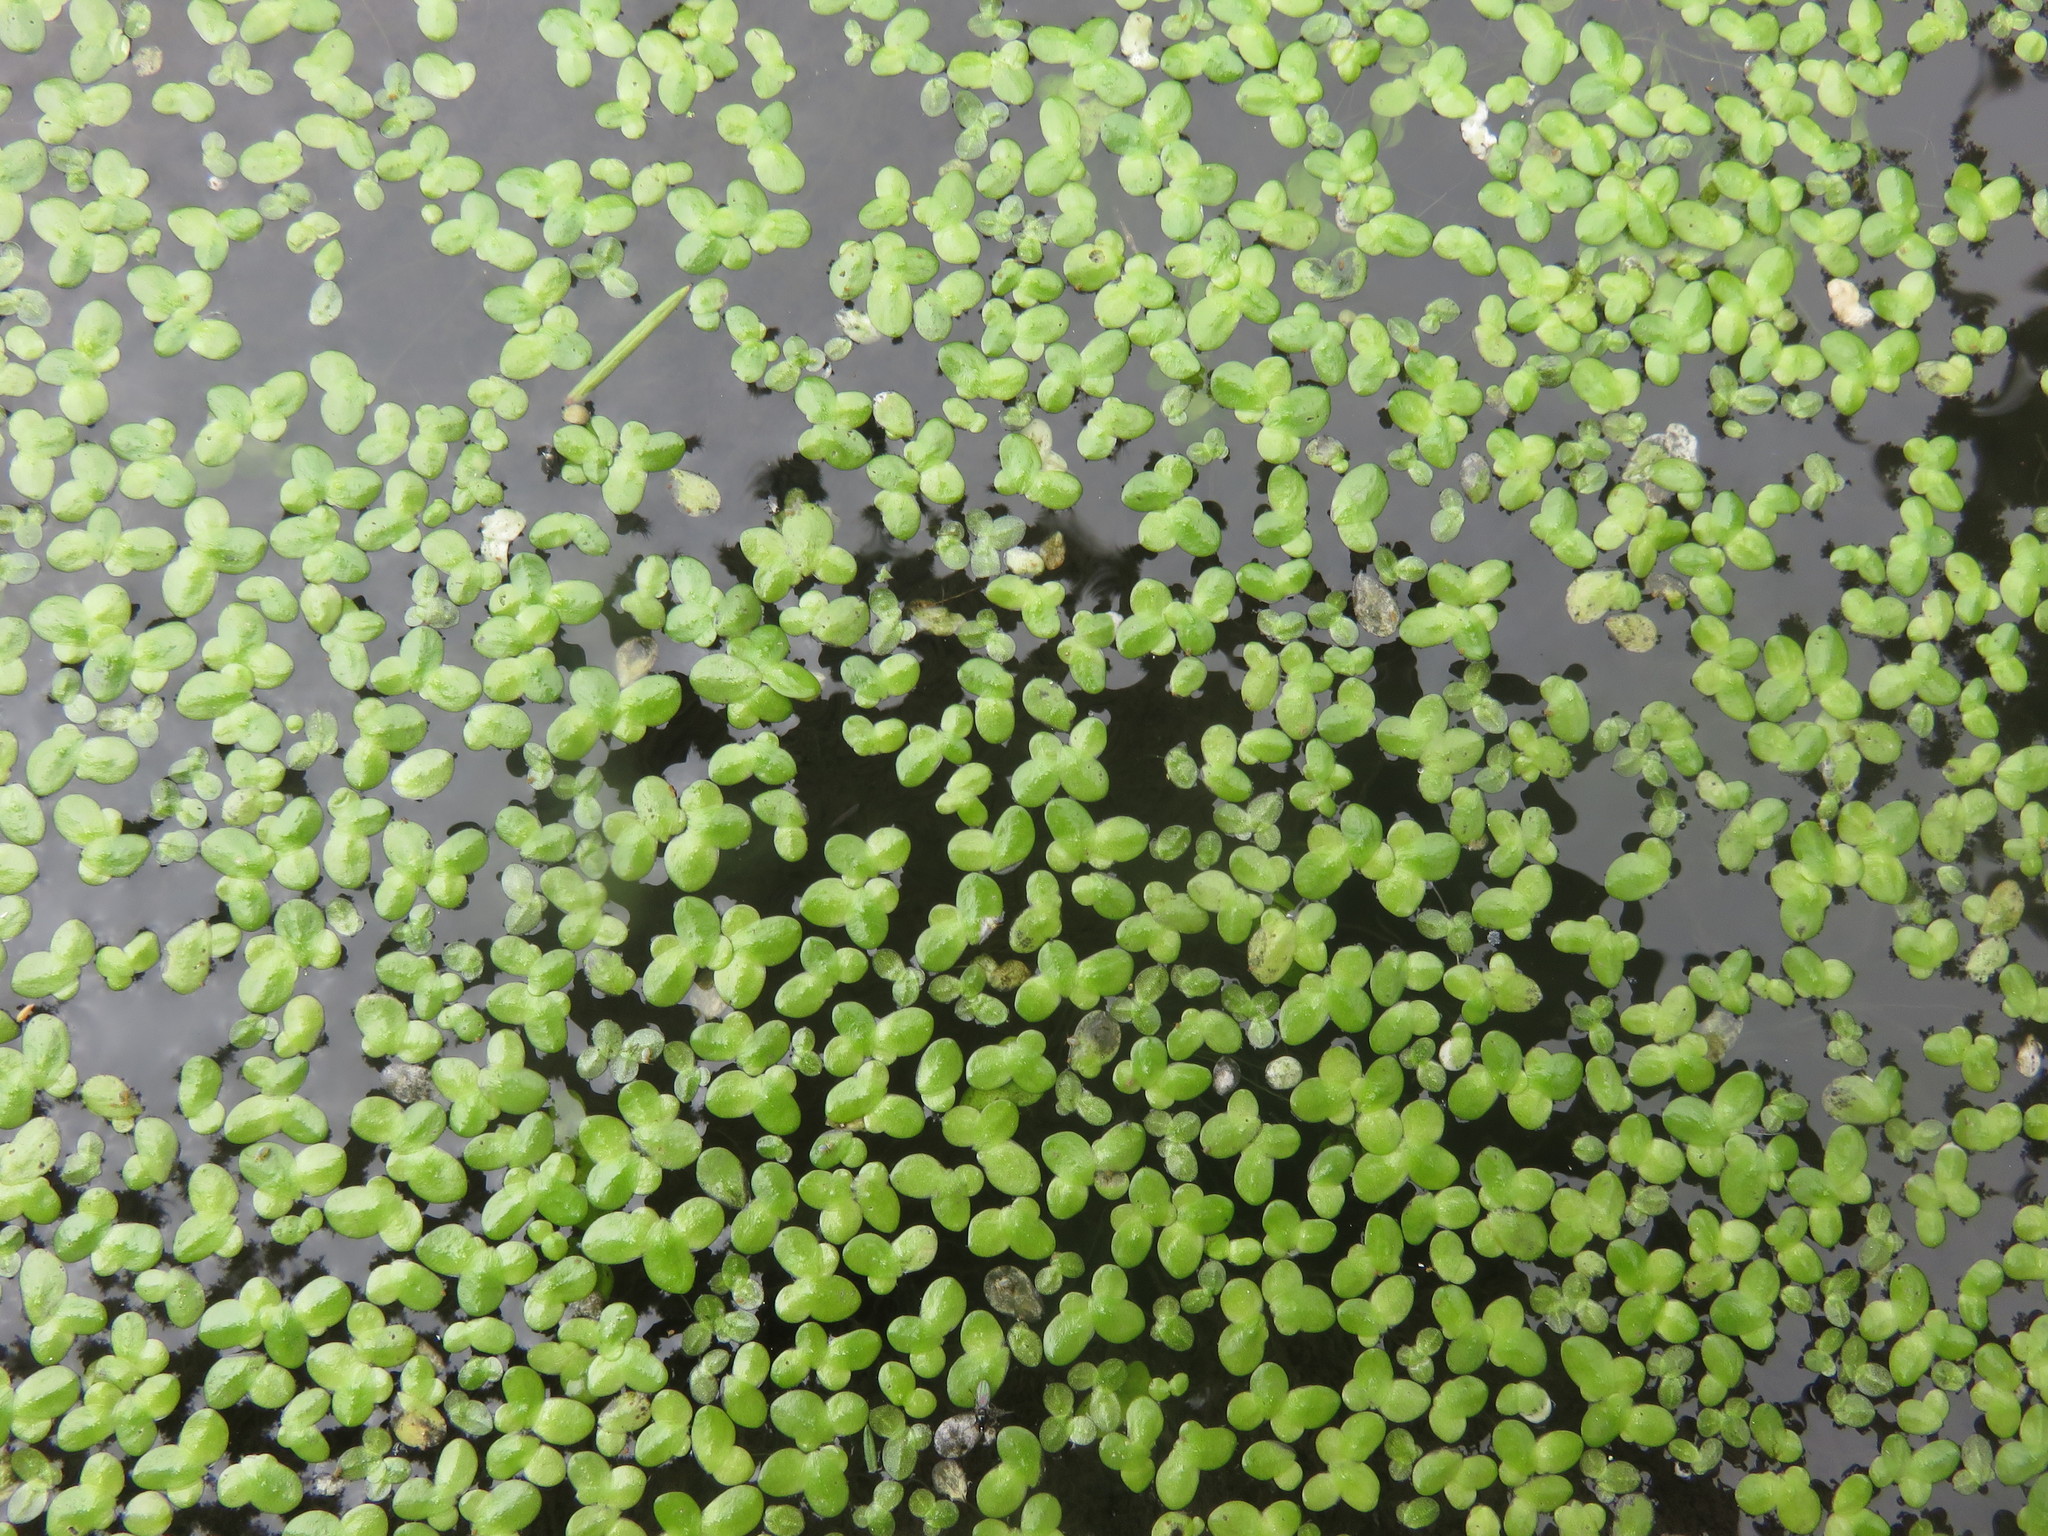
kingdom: Plantae
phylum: Tracheophyta
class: Liliopsida
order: Alismatales
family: Araceae
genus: Lemna
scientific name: Lemna minor
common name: Common duckweed
